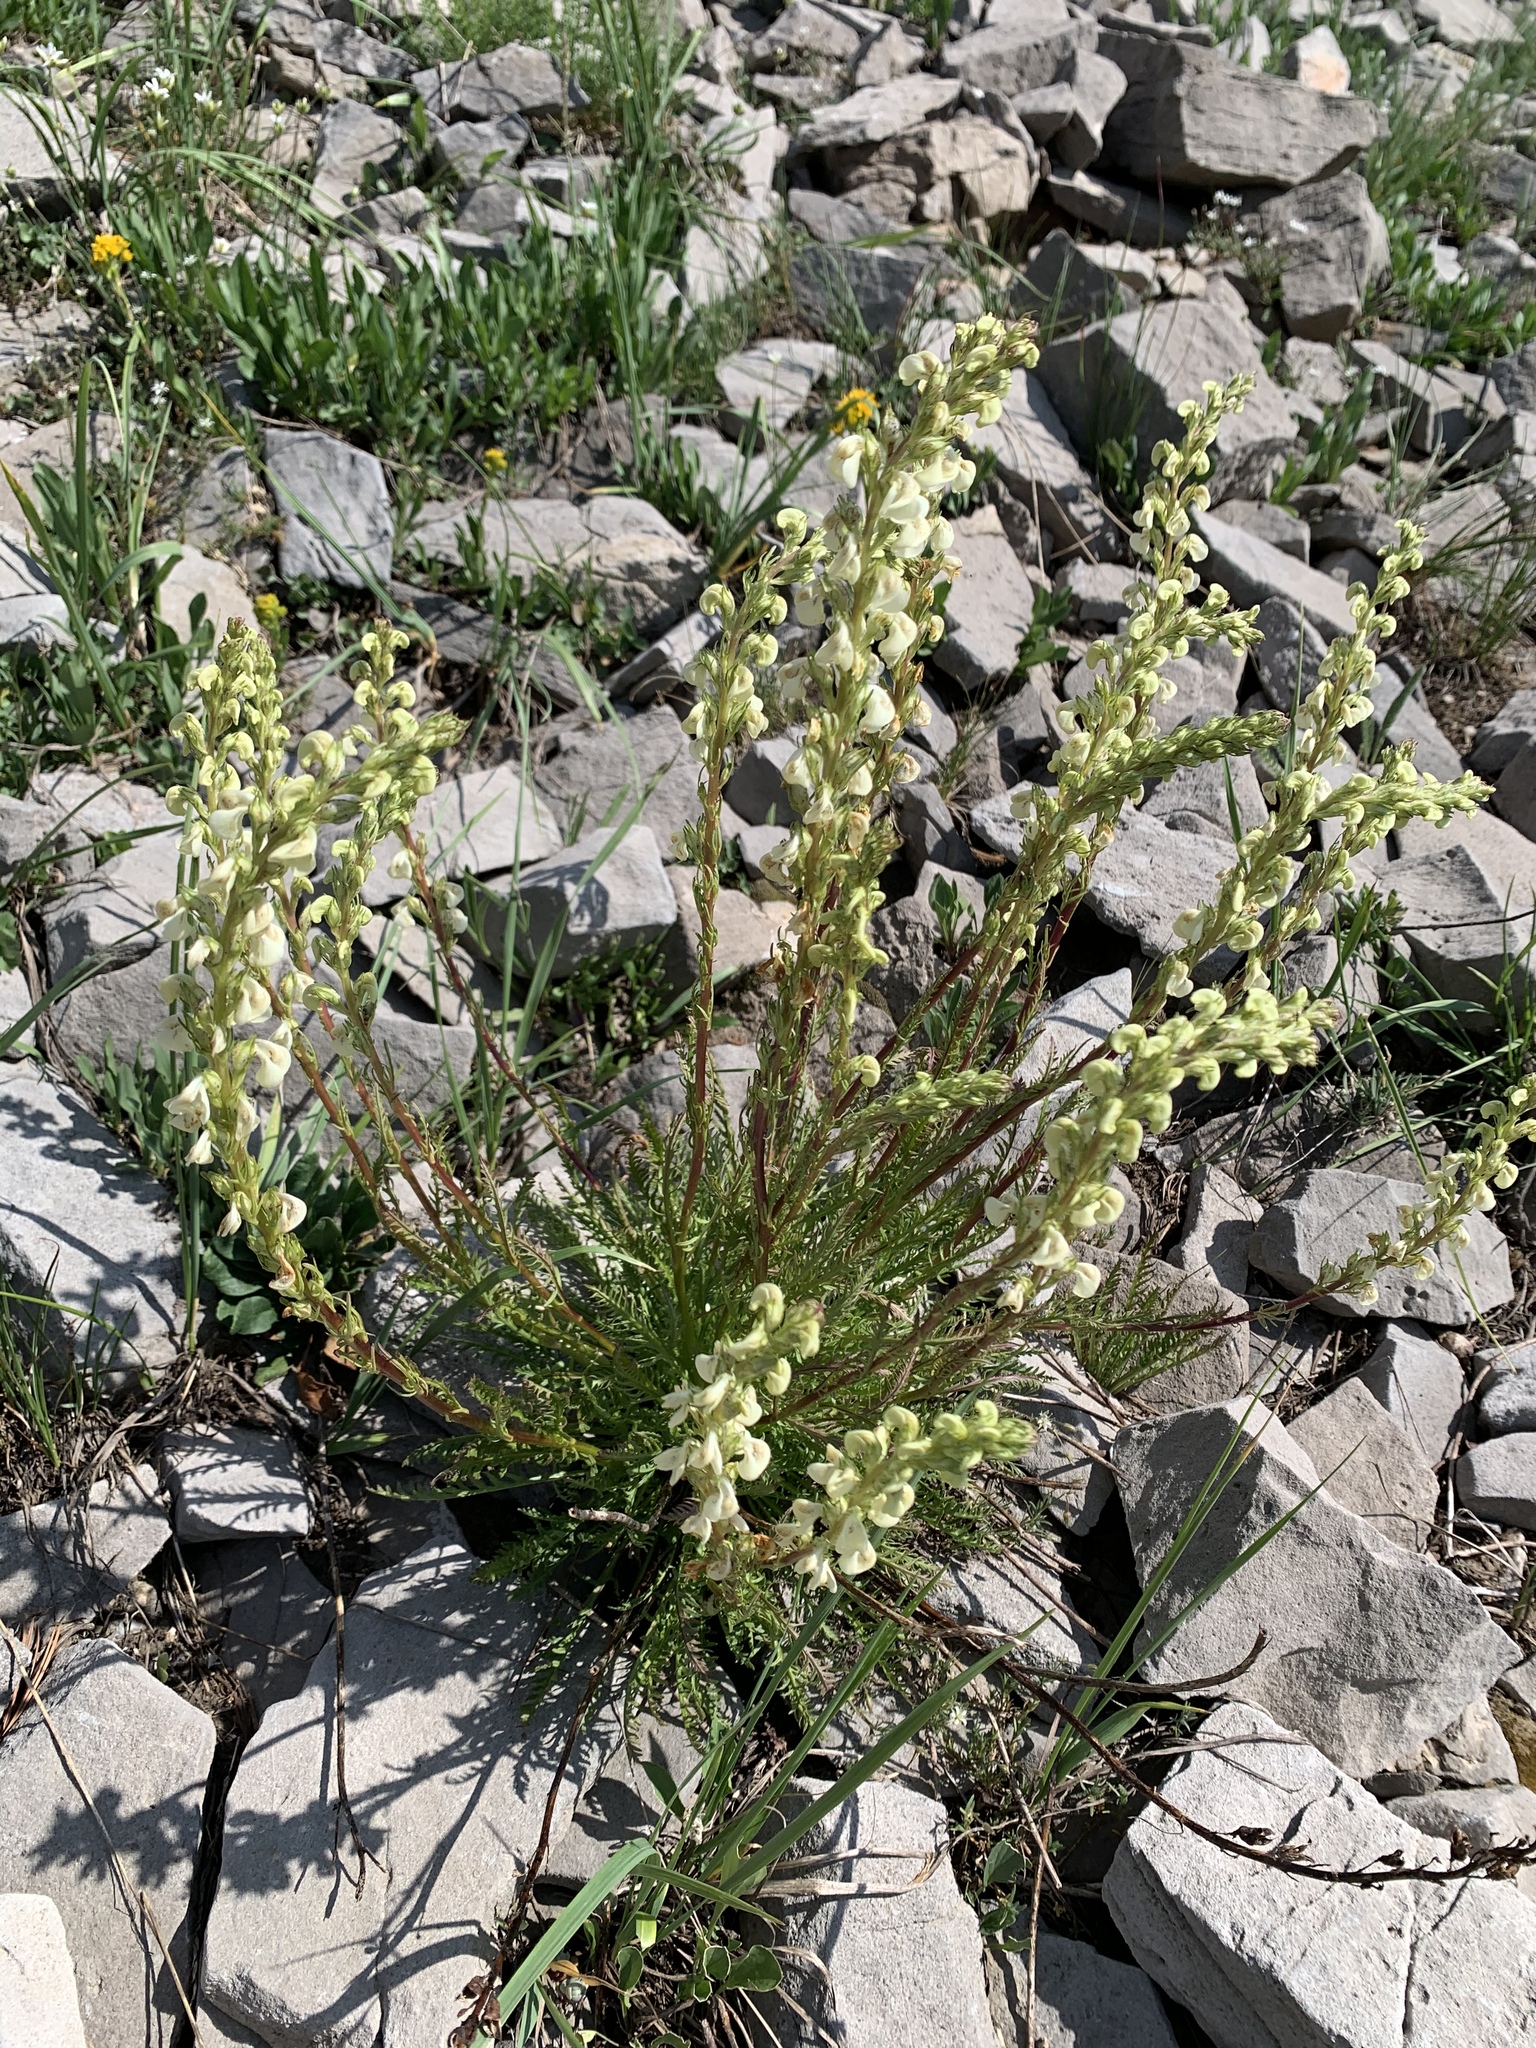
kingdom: Plantae
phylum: Tracheophyta
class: Magnoliopsida
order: Lamiales
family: Orobanchaceae
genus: Pedicularis
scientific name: Pedicularis contorta
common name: Coiled lousewort
